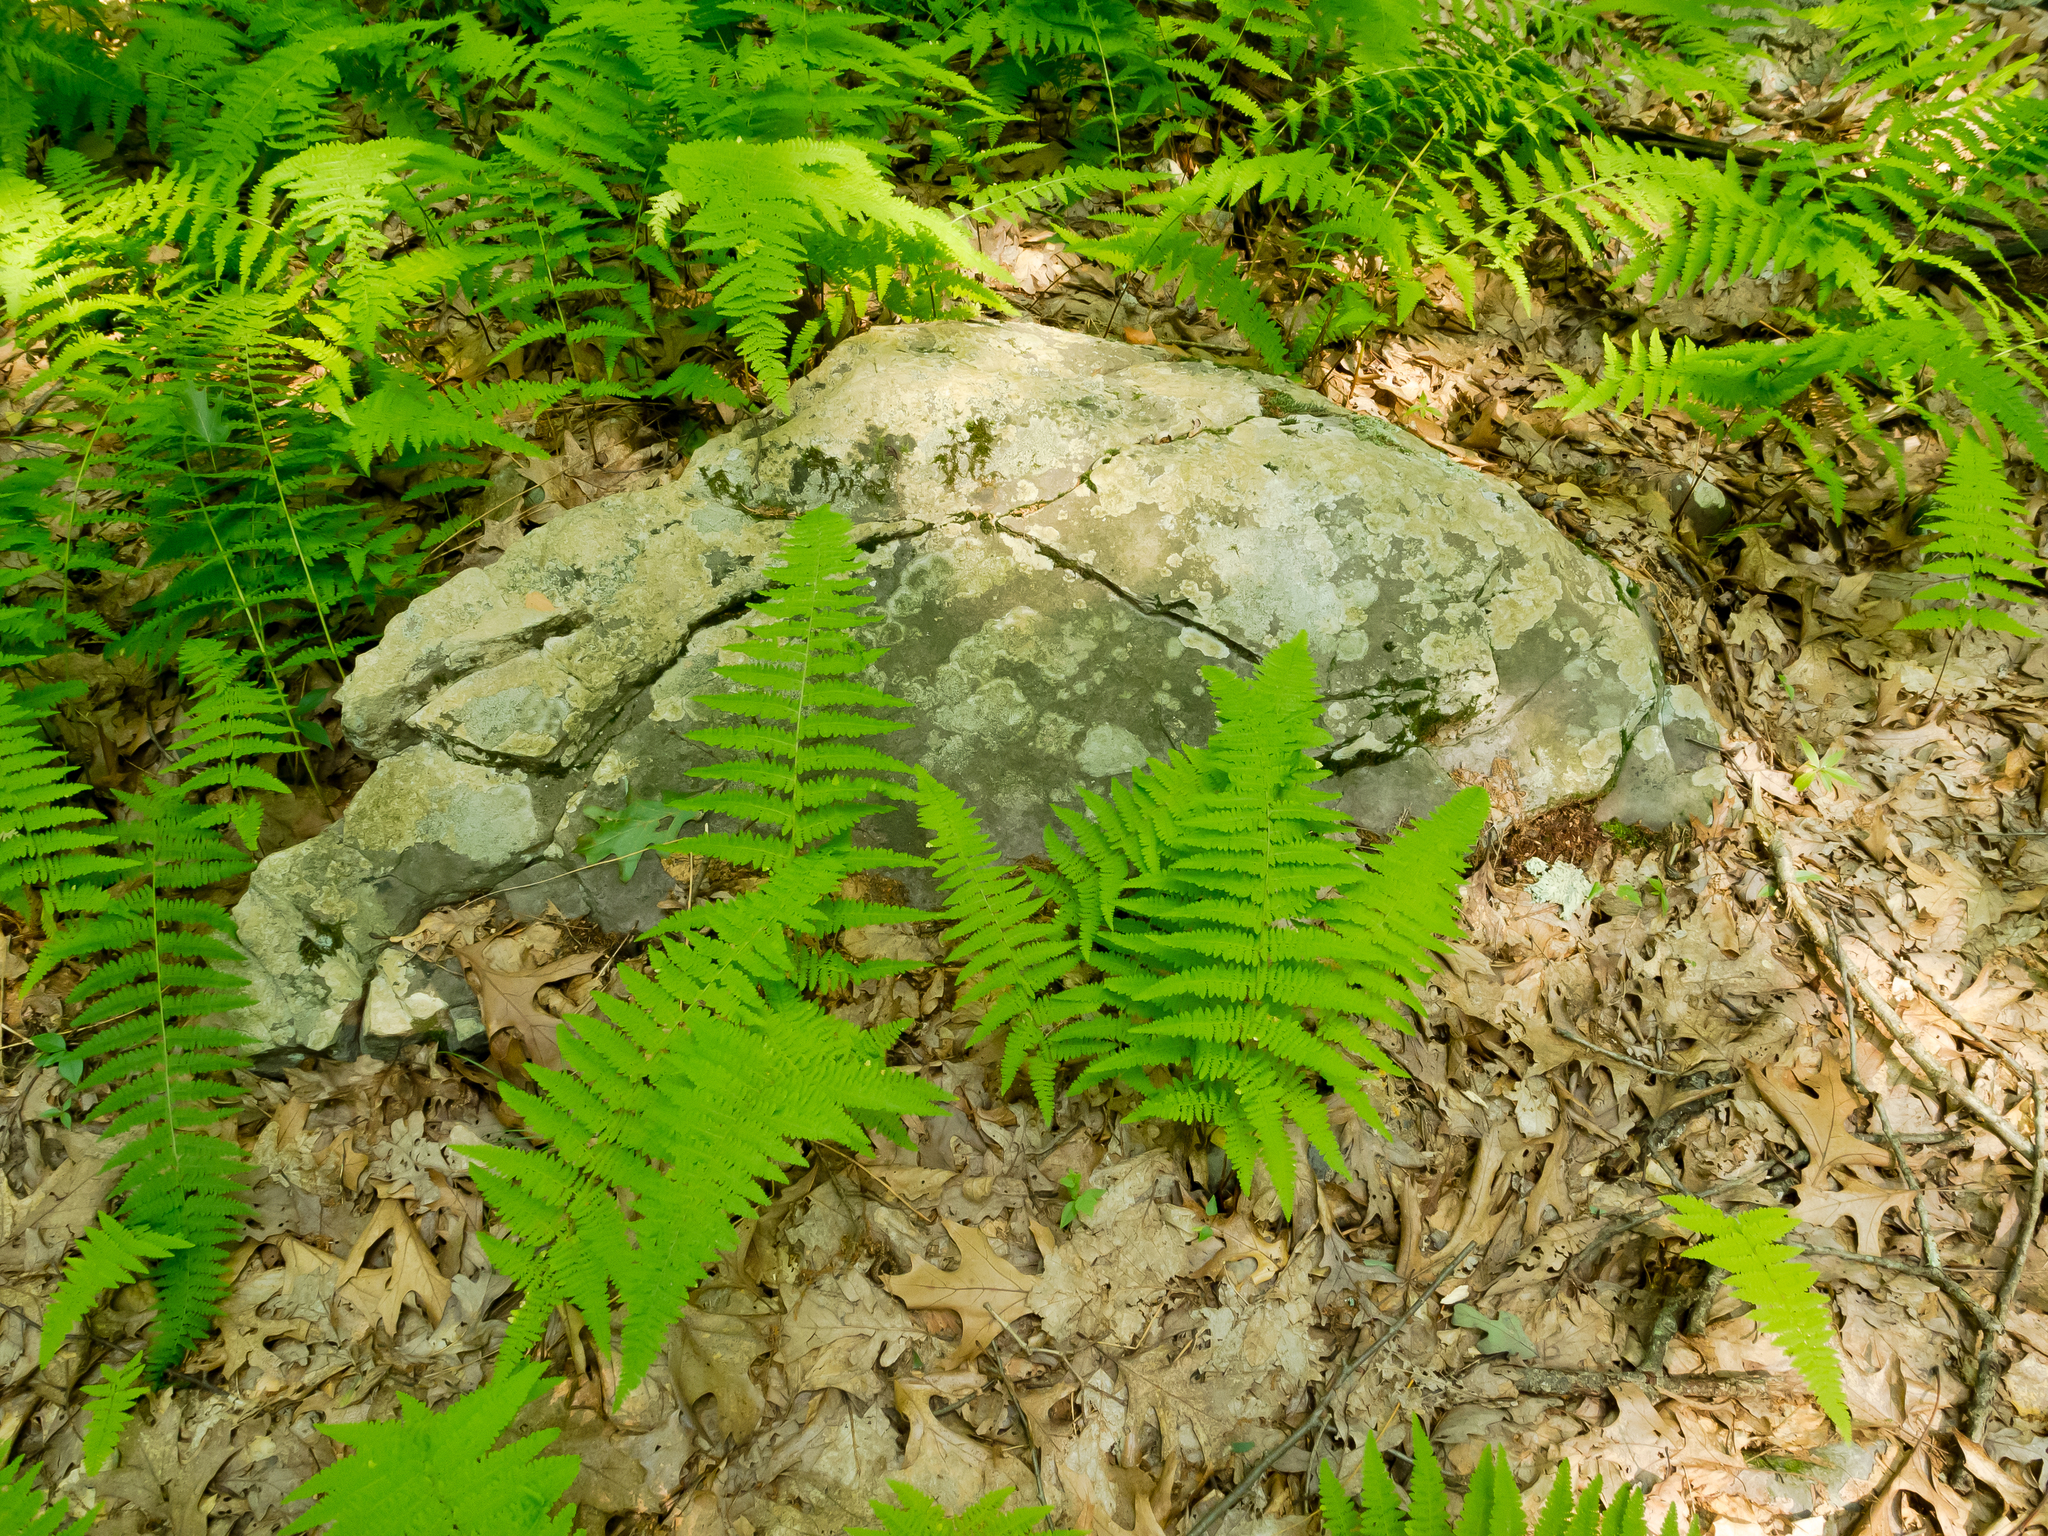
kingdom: Plantae
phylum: Tracheophyta
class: Polypodiopsida
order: Polypodiales
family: Dennstaedtiaceae
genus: Sitobolium
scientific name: Sitobolium punctilobum
